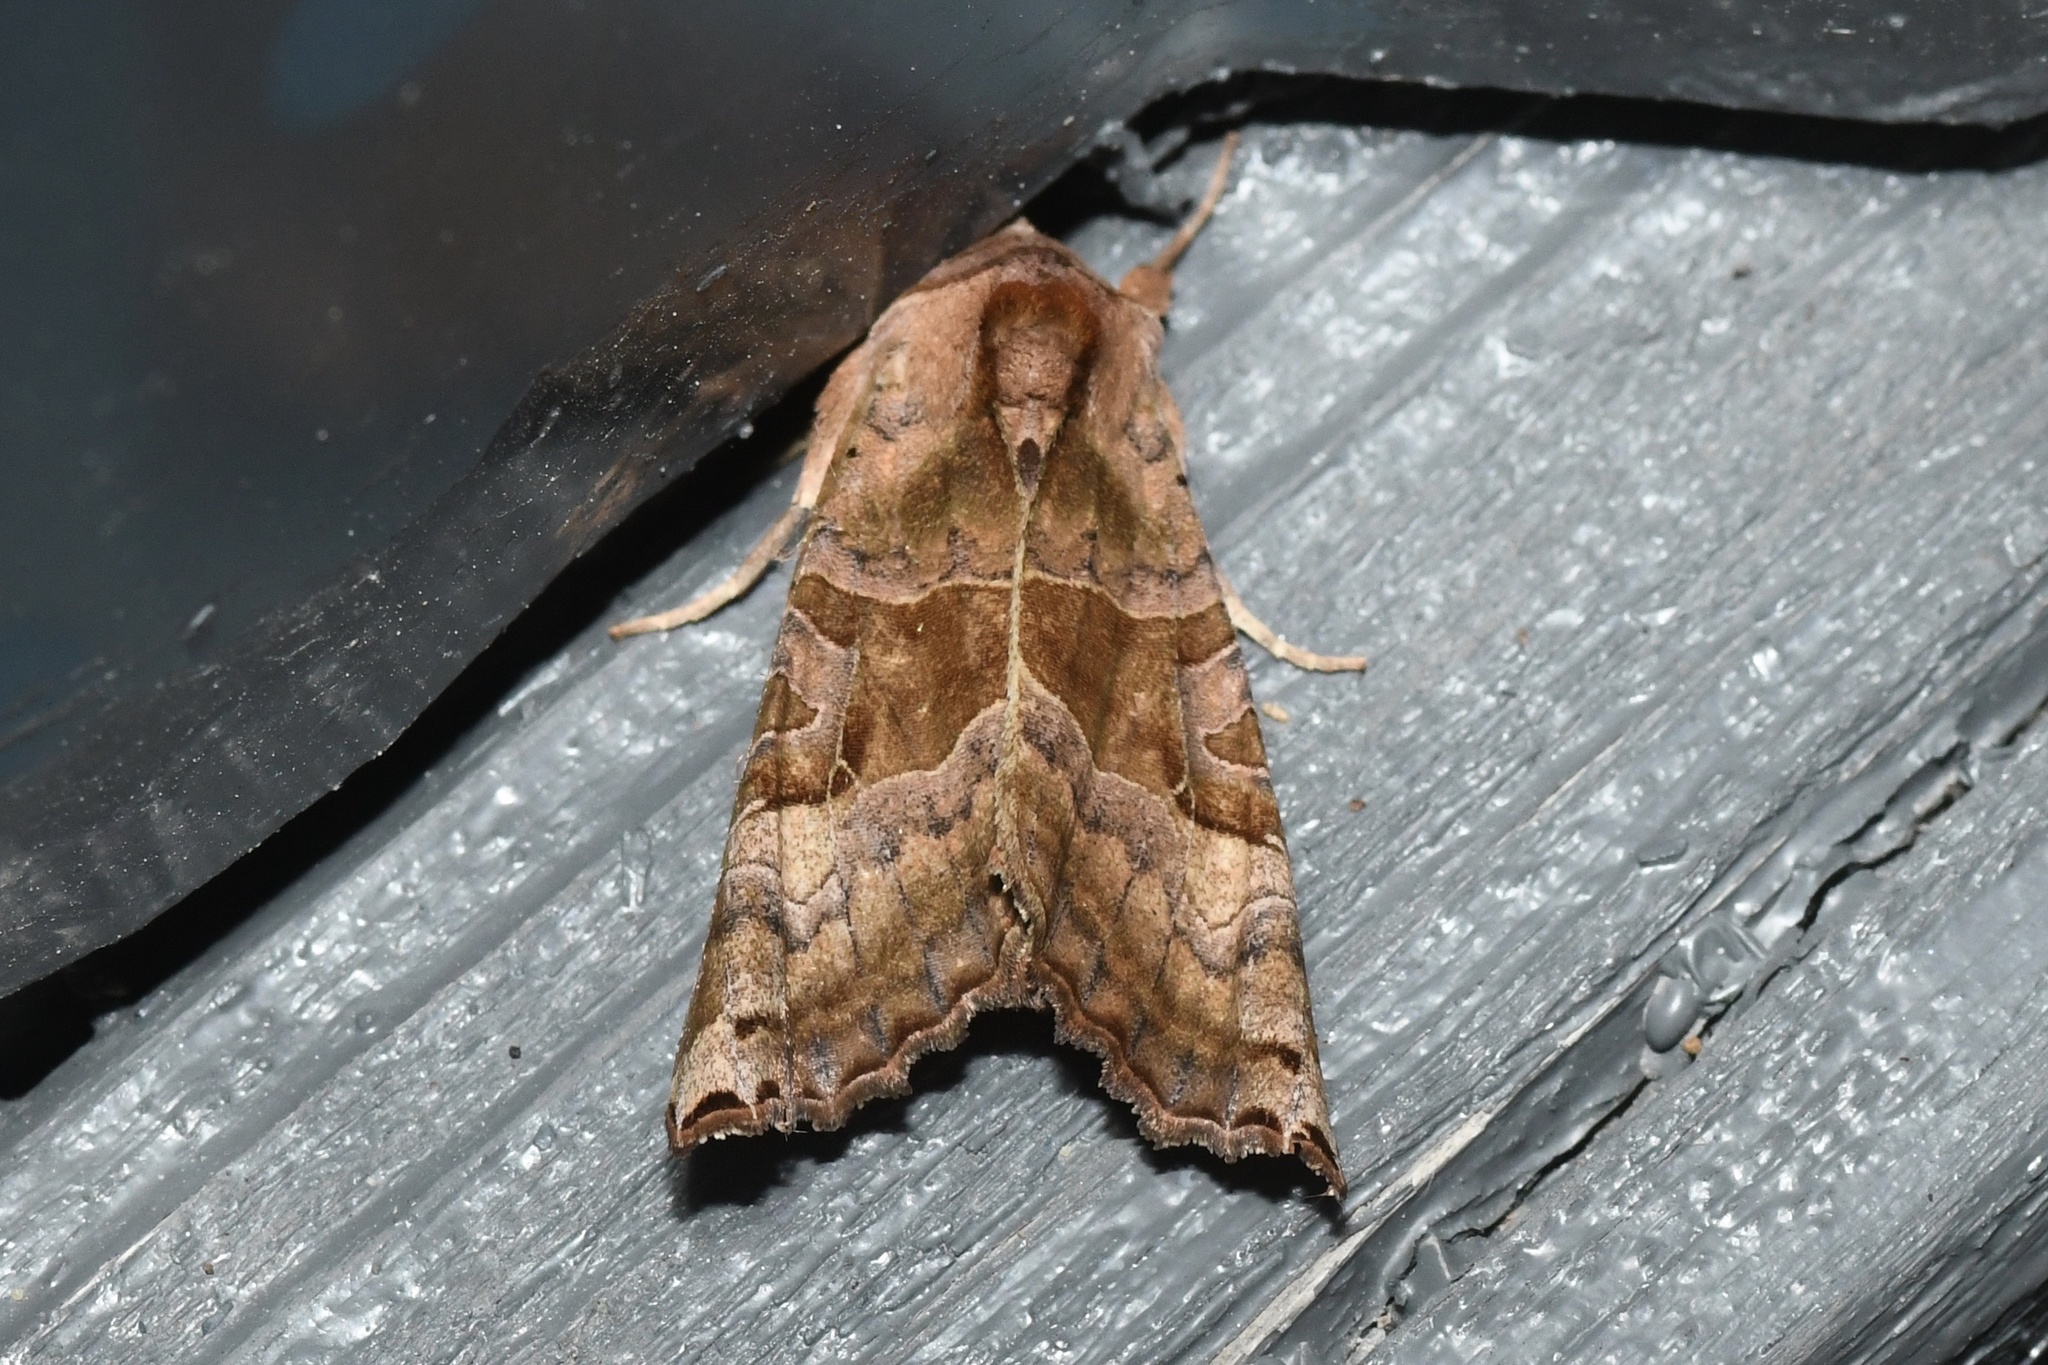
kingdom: Animalia
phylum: Arthropoda
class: Insecta
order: Lepidoptera
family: Noctuidae
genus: Phlogophora
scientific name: Phlogophora periculosa
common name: Brown angle shades
